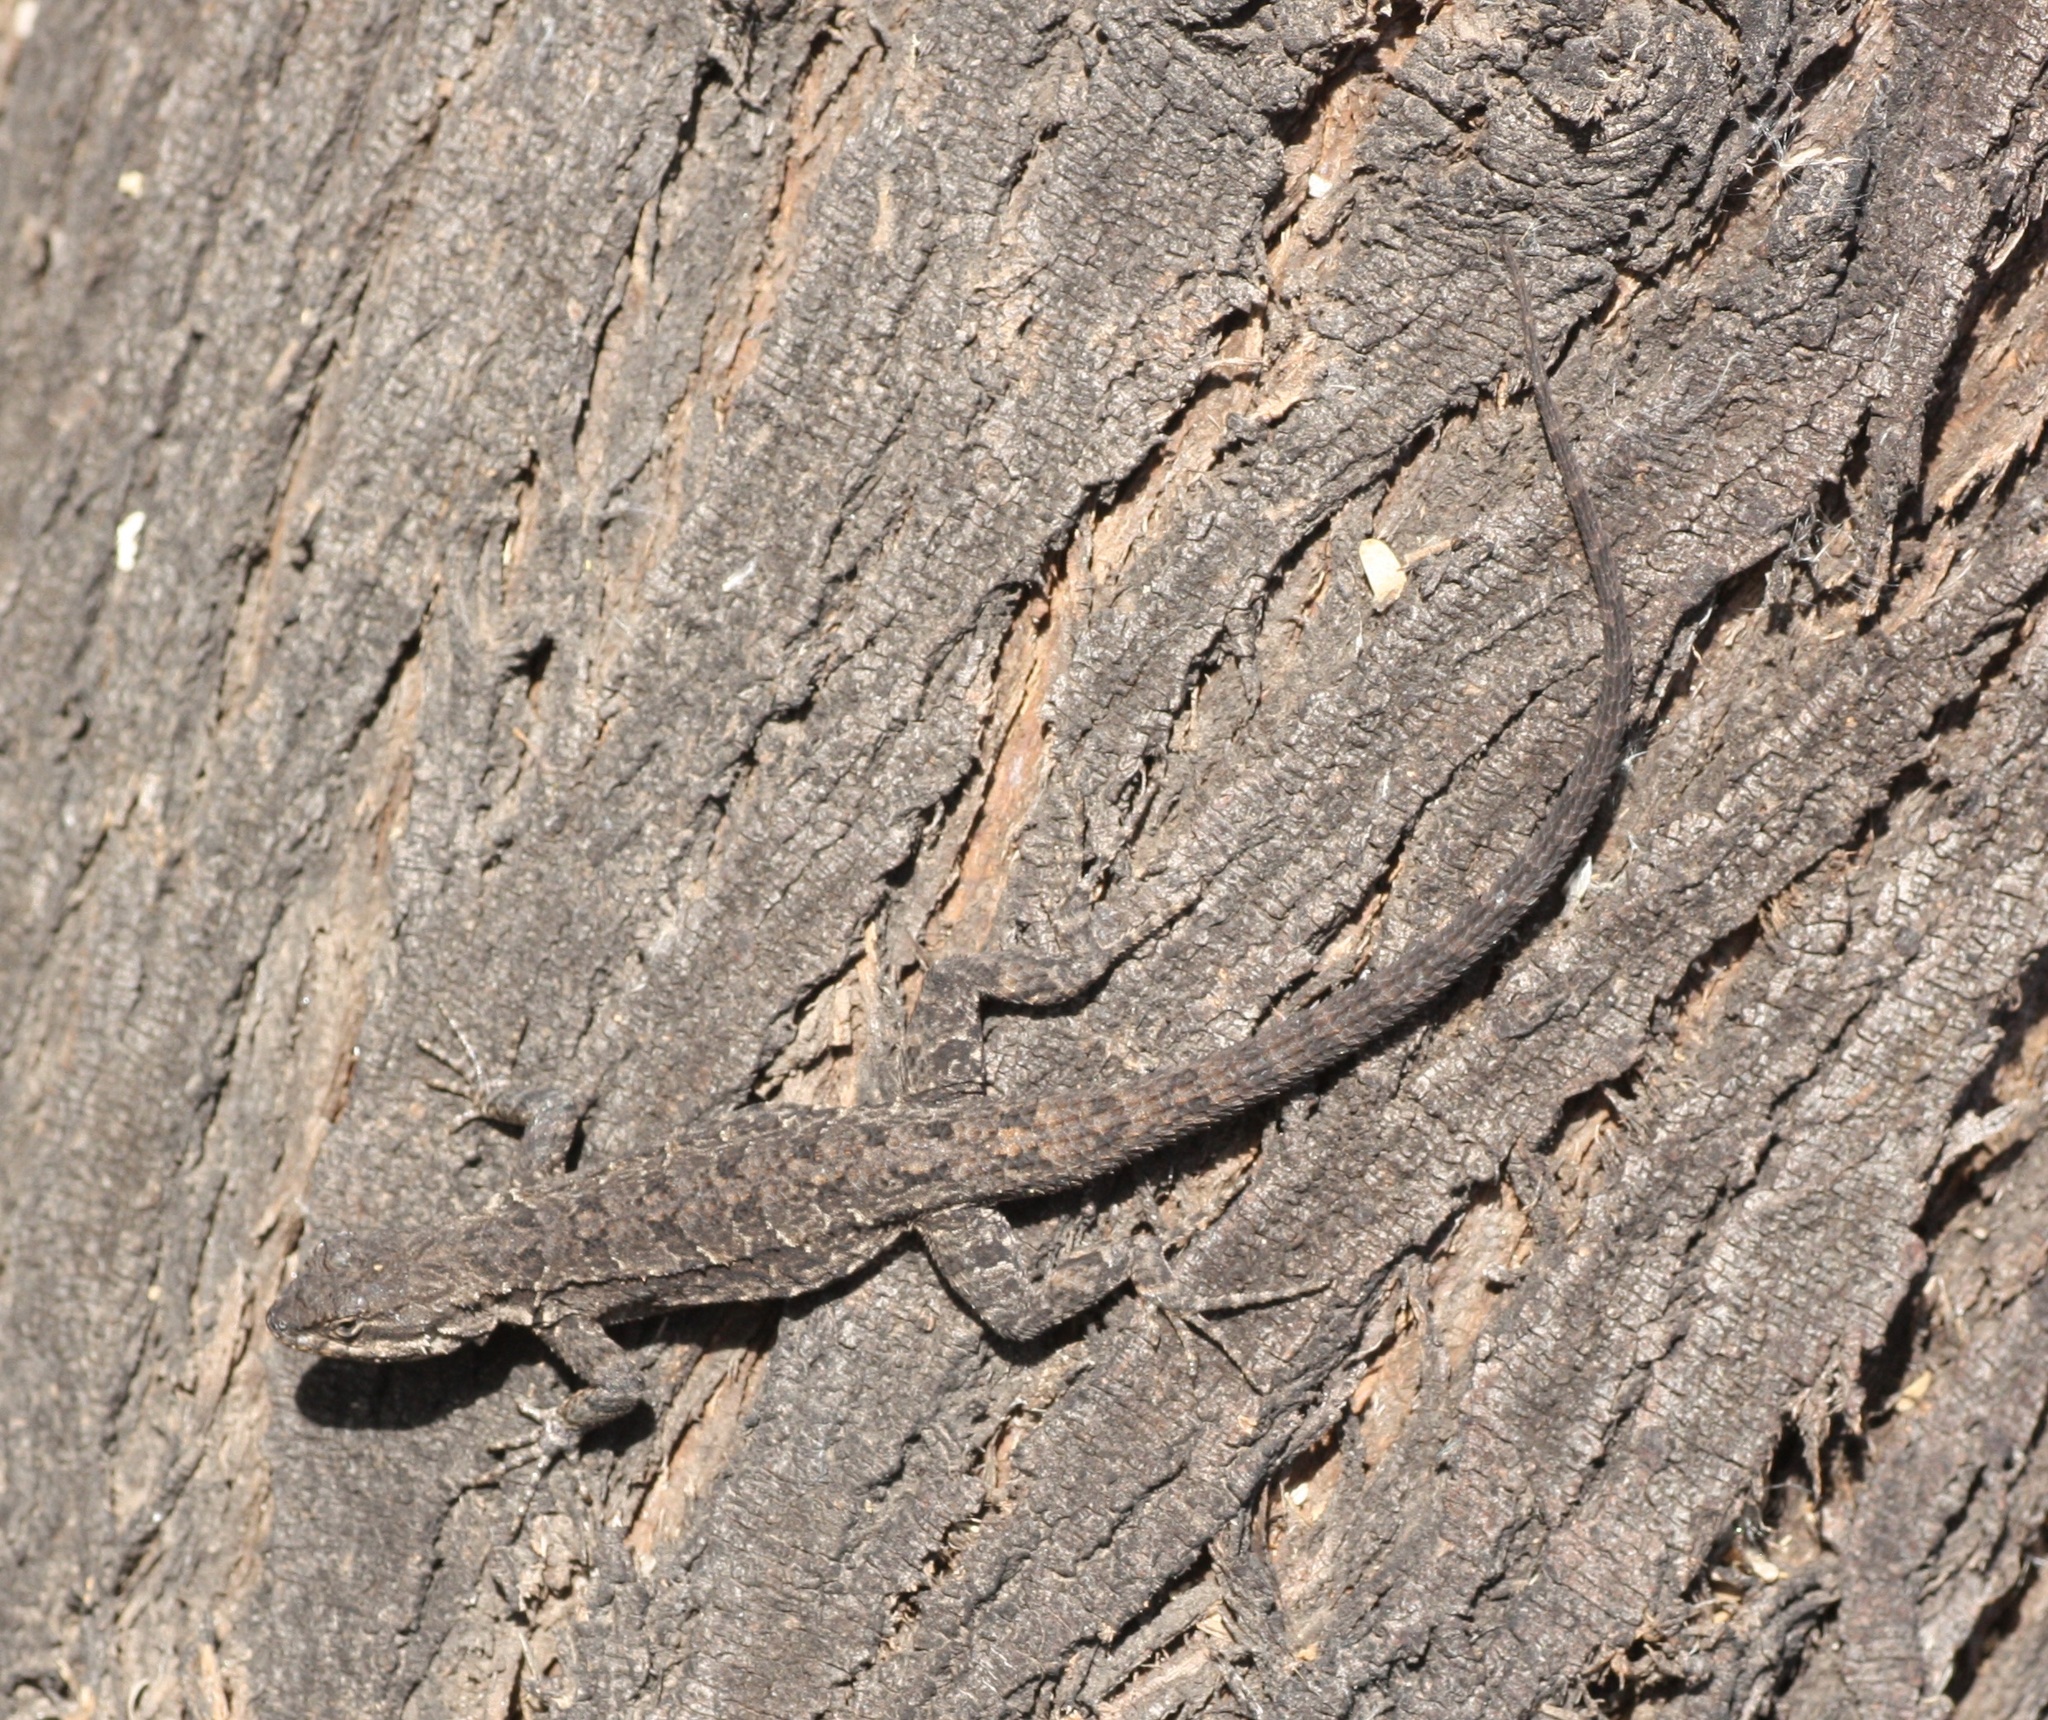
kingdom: Animalia
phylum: Chordata
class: Squamata
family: Phrynosomatidae
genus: Urosaurus
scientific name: Urosaurus ornatus
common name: Ornate tree lizard
